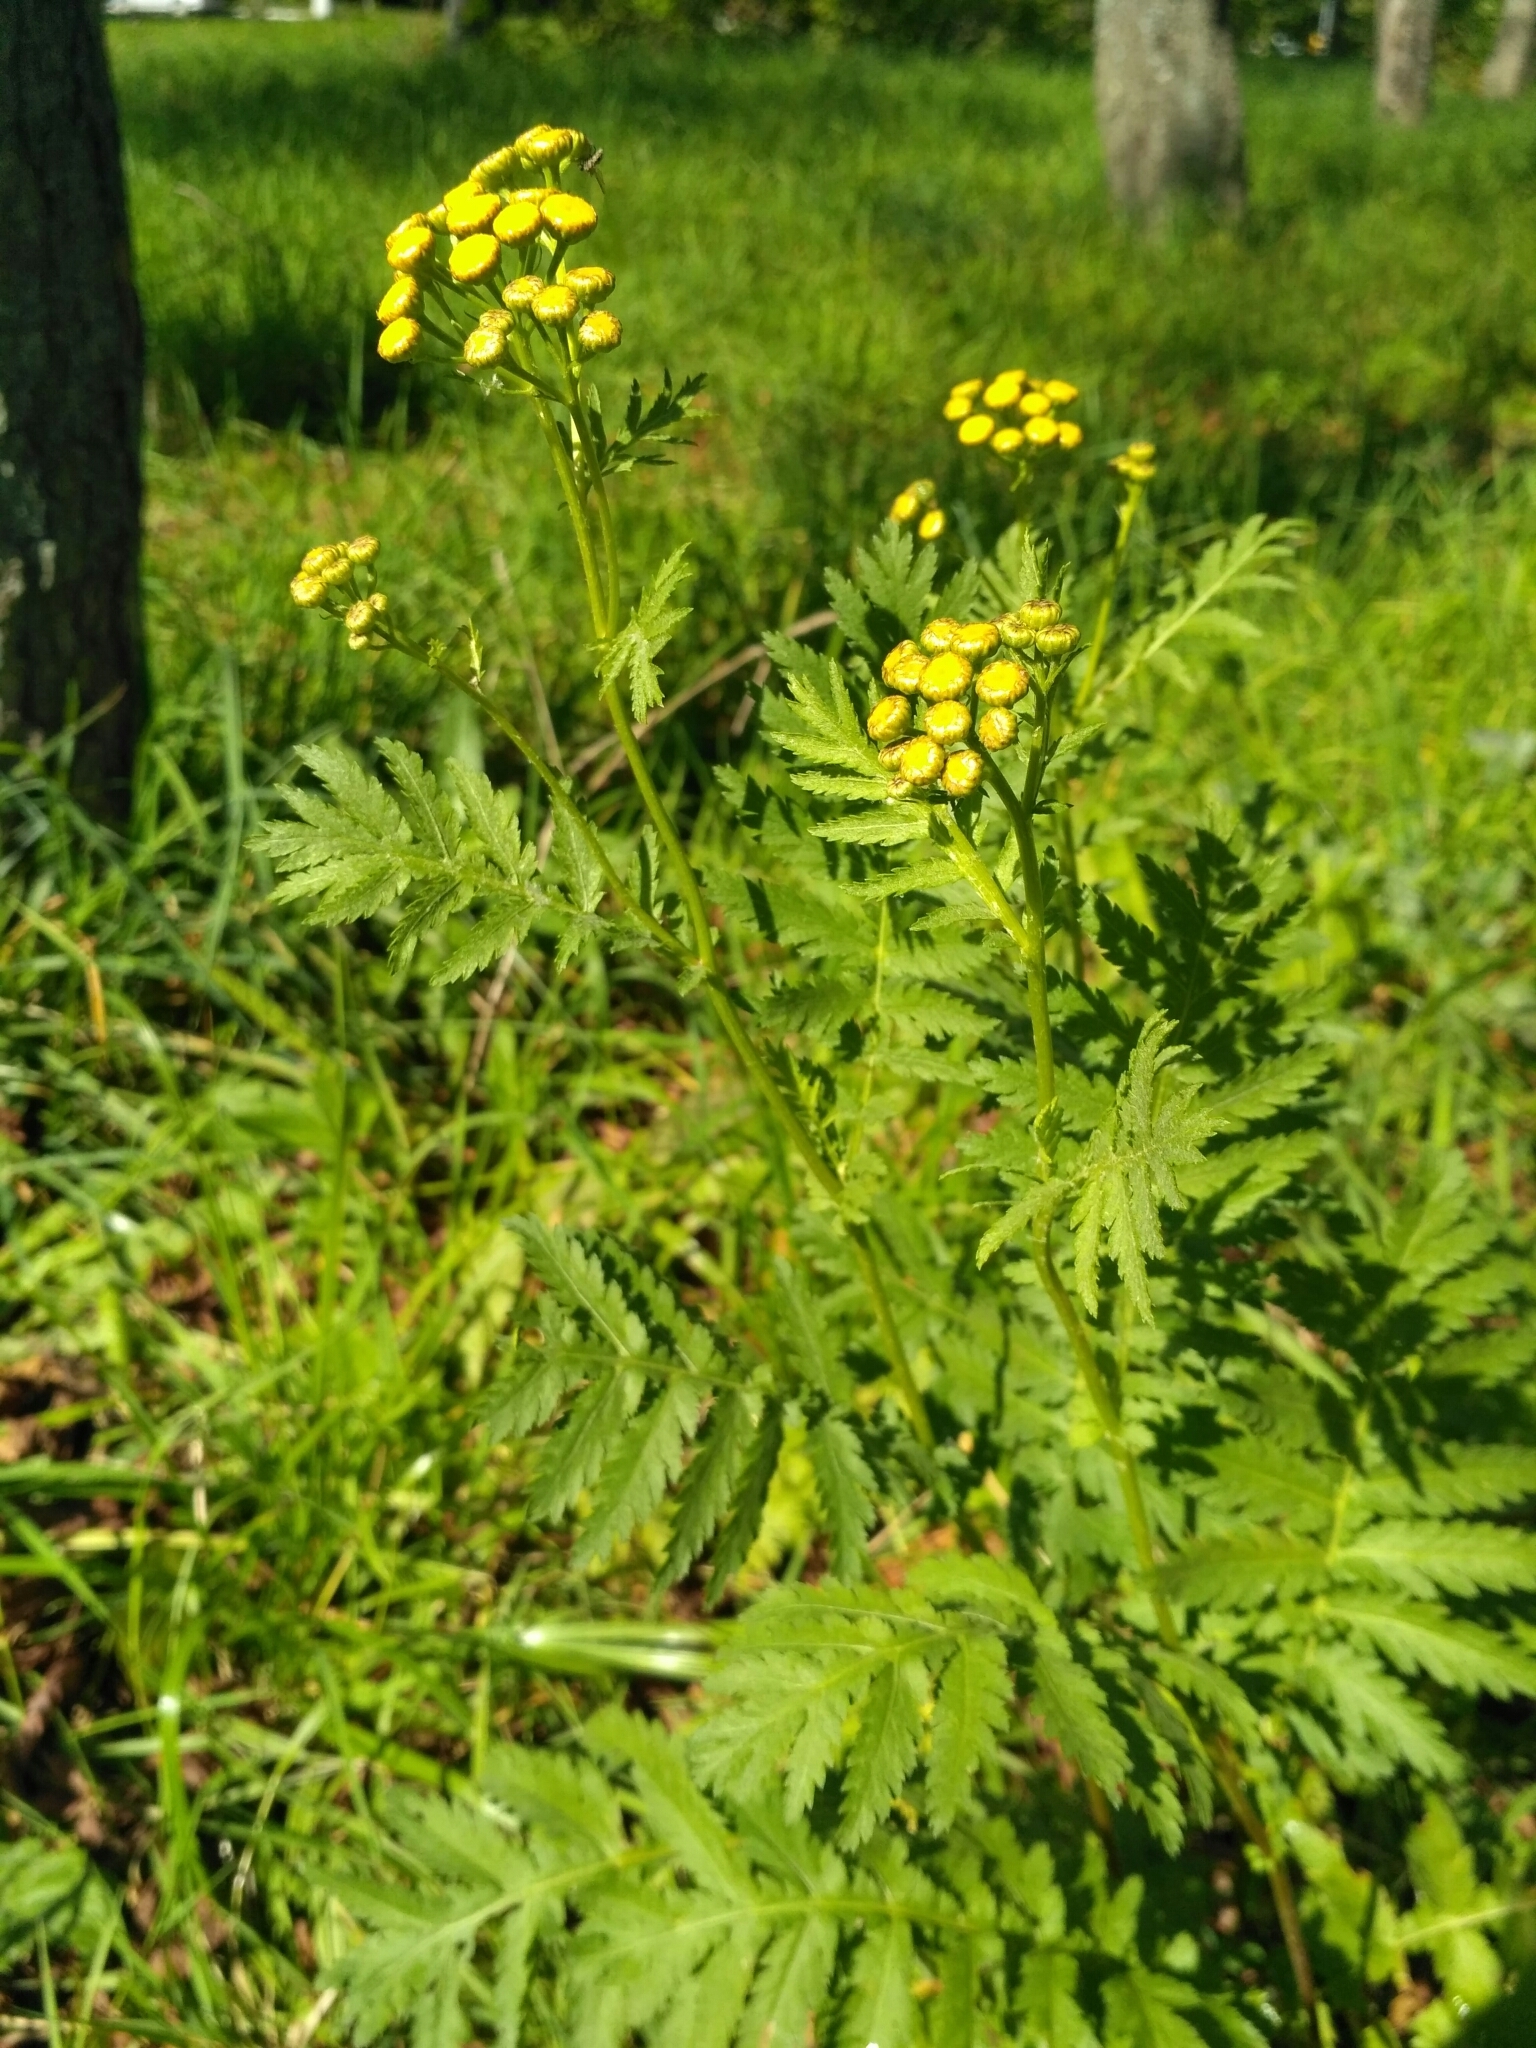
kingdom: Plantae
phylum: Tracheophyta
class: Magnoliopsida
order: Asterales
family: Asteraceae
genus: Tanacetum
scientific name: Tanacetum vulgare
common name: Common tansy
